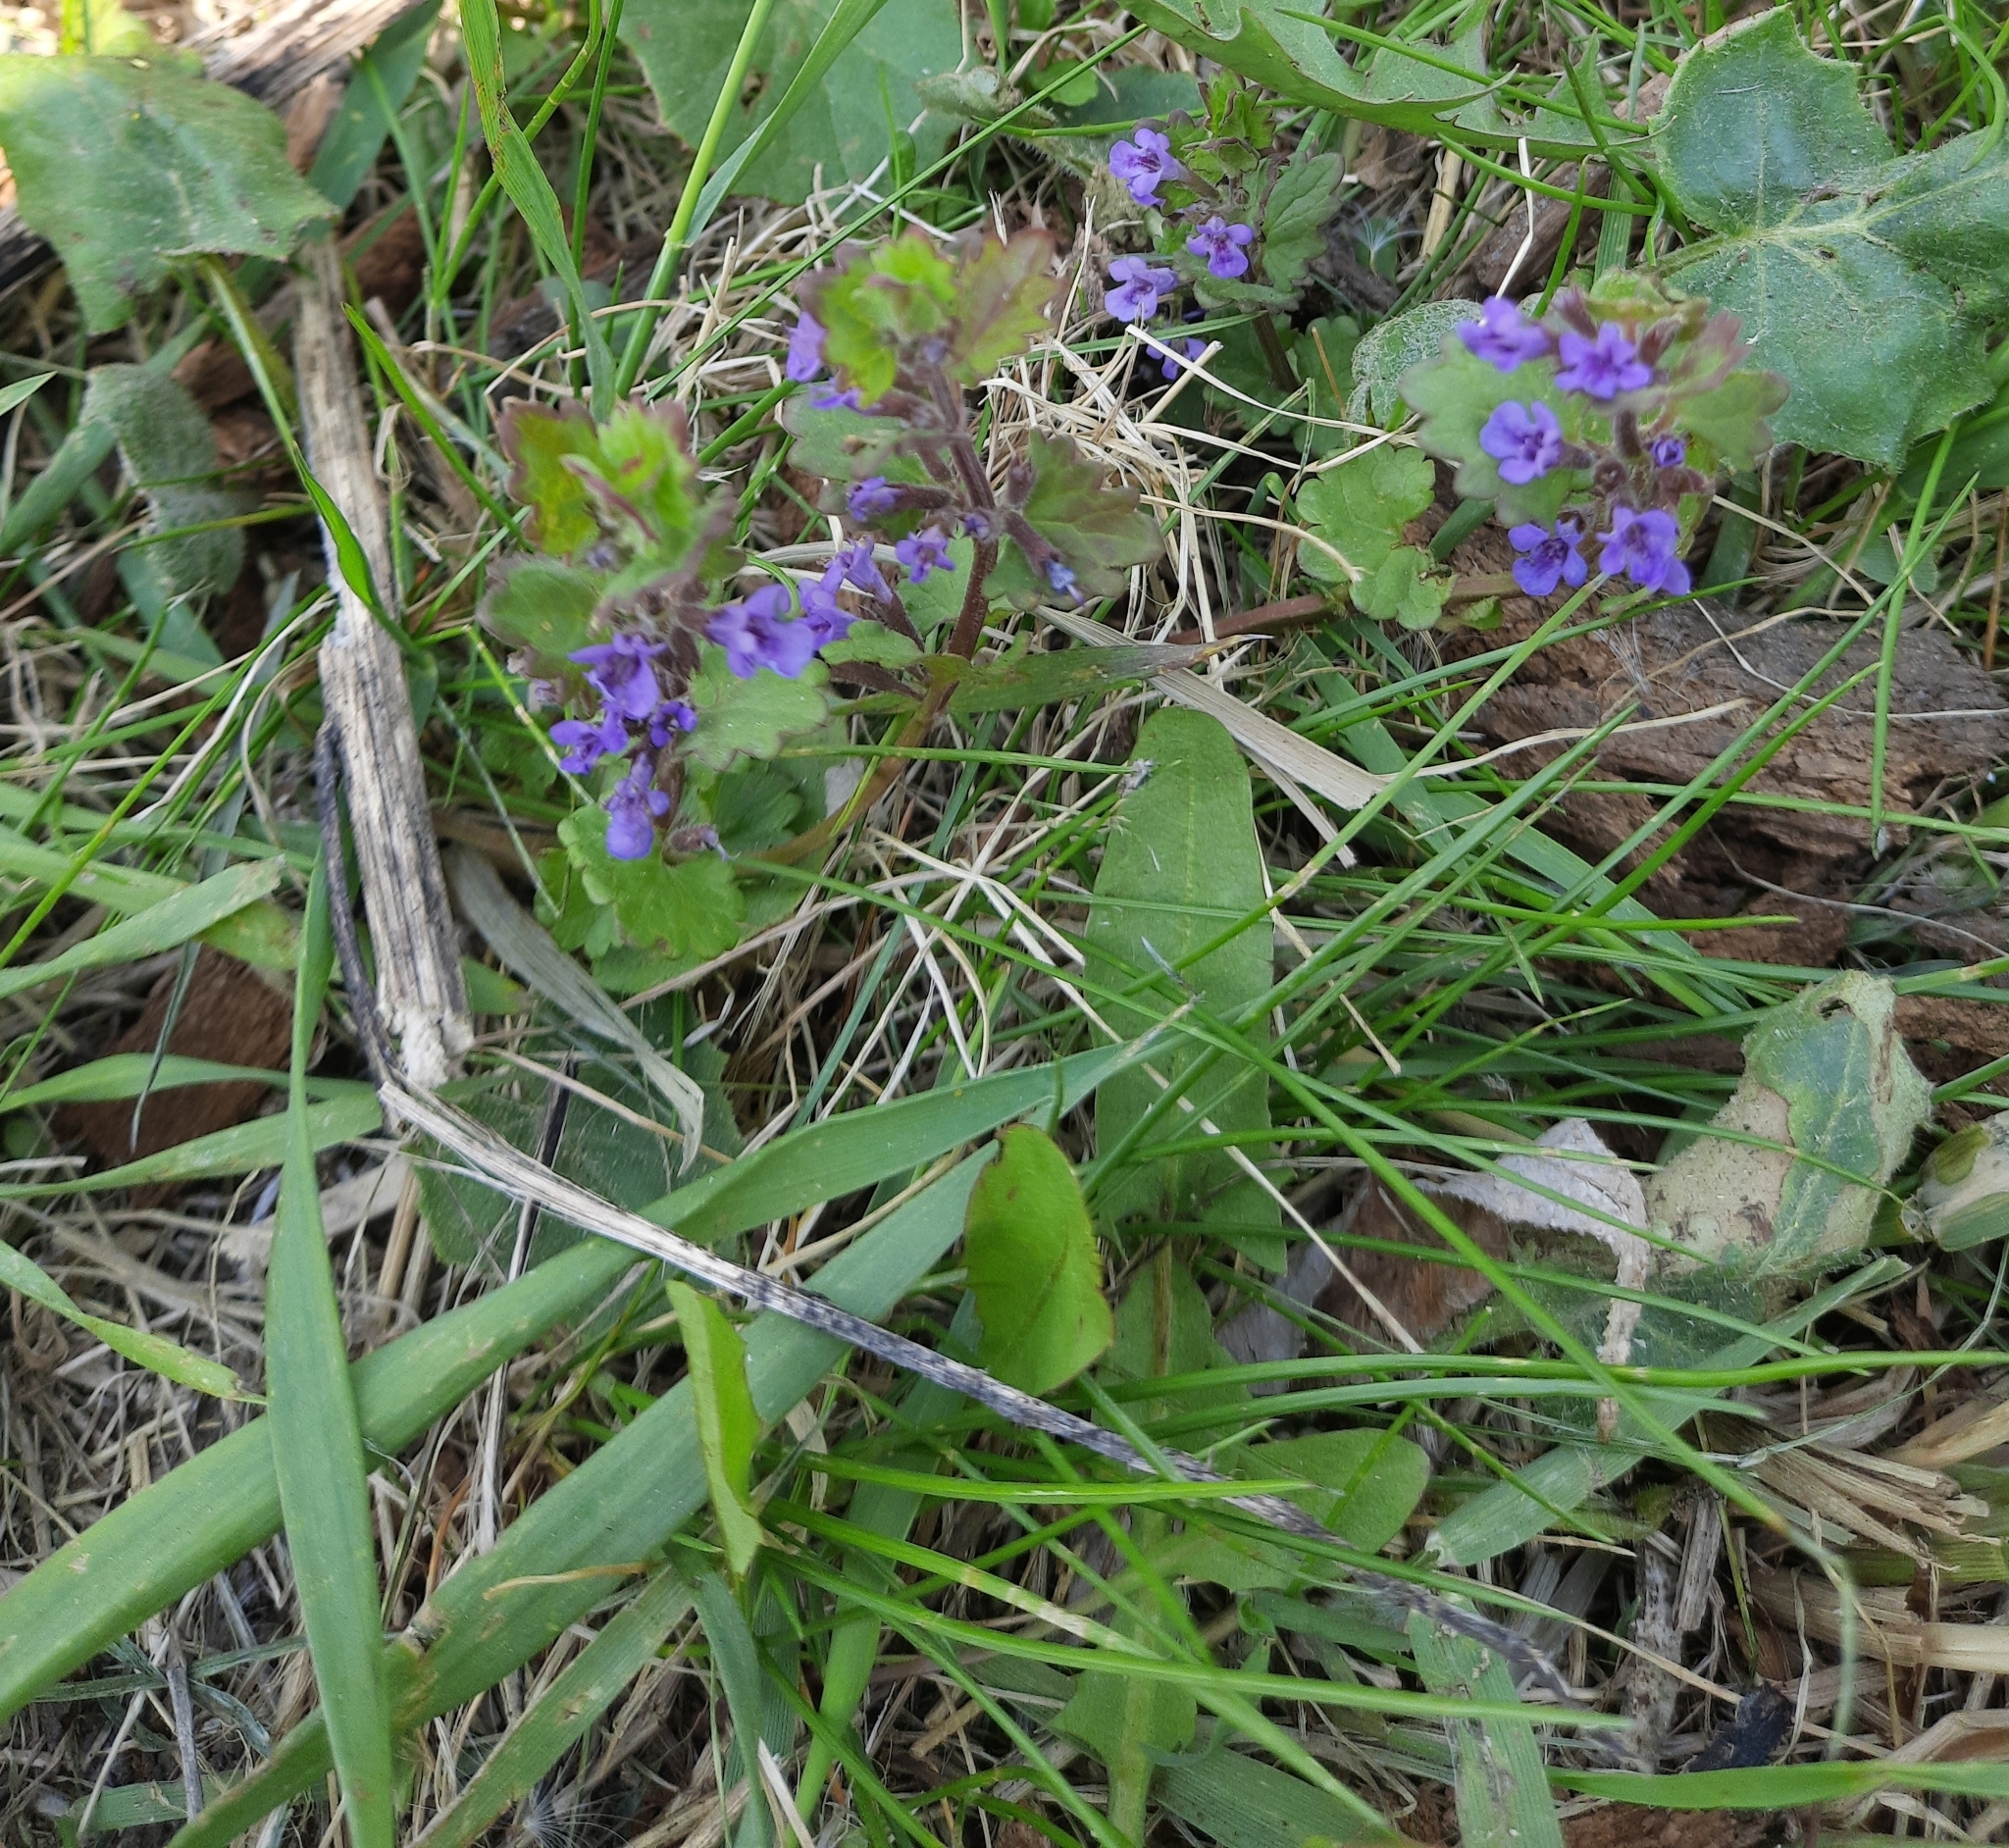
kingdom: Plantae
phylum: Tracheophyta
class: Magnoliopsida
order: Lamiales
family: Lamiaceae
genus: Glechoma
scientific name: Glechoma hederacea
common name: Ground ivy
